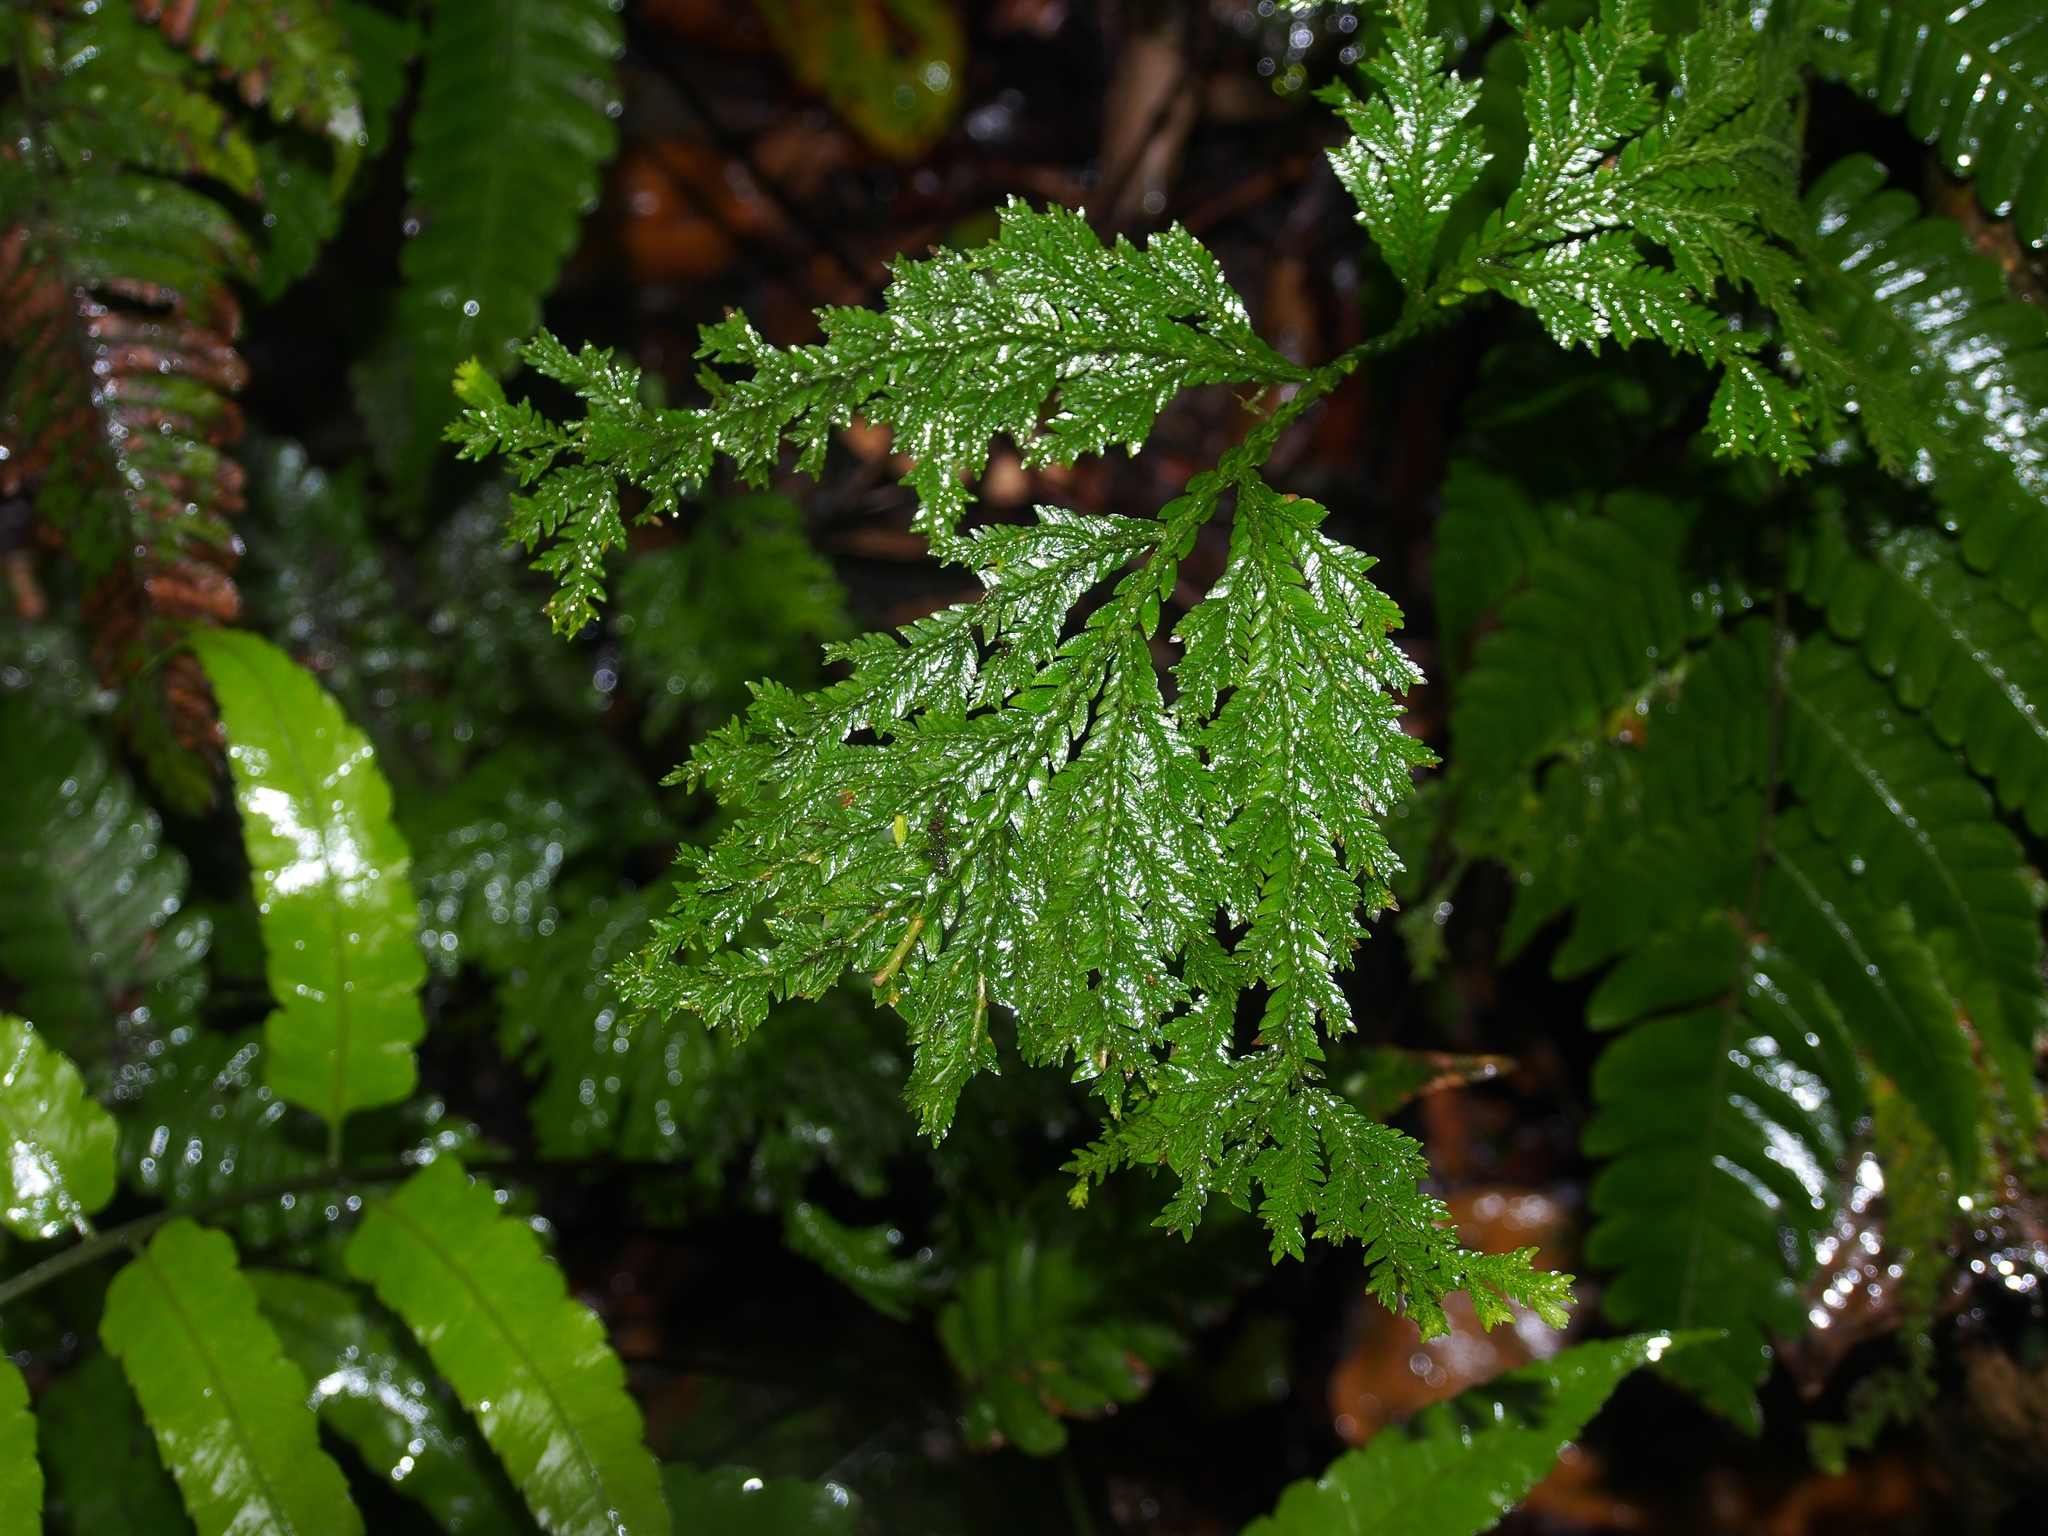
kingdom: Plantae
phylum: Tracheophyta
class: Lycopodiopsida
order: Selaginellales
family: Selaginellaceae
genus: Selaginella
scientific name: Selaginella anceps
